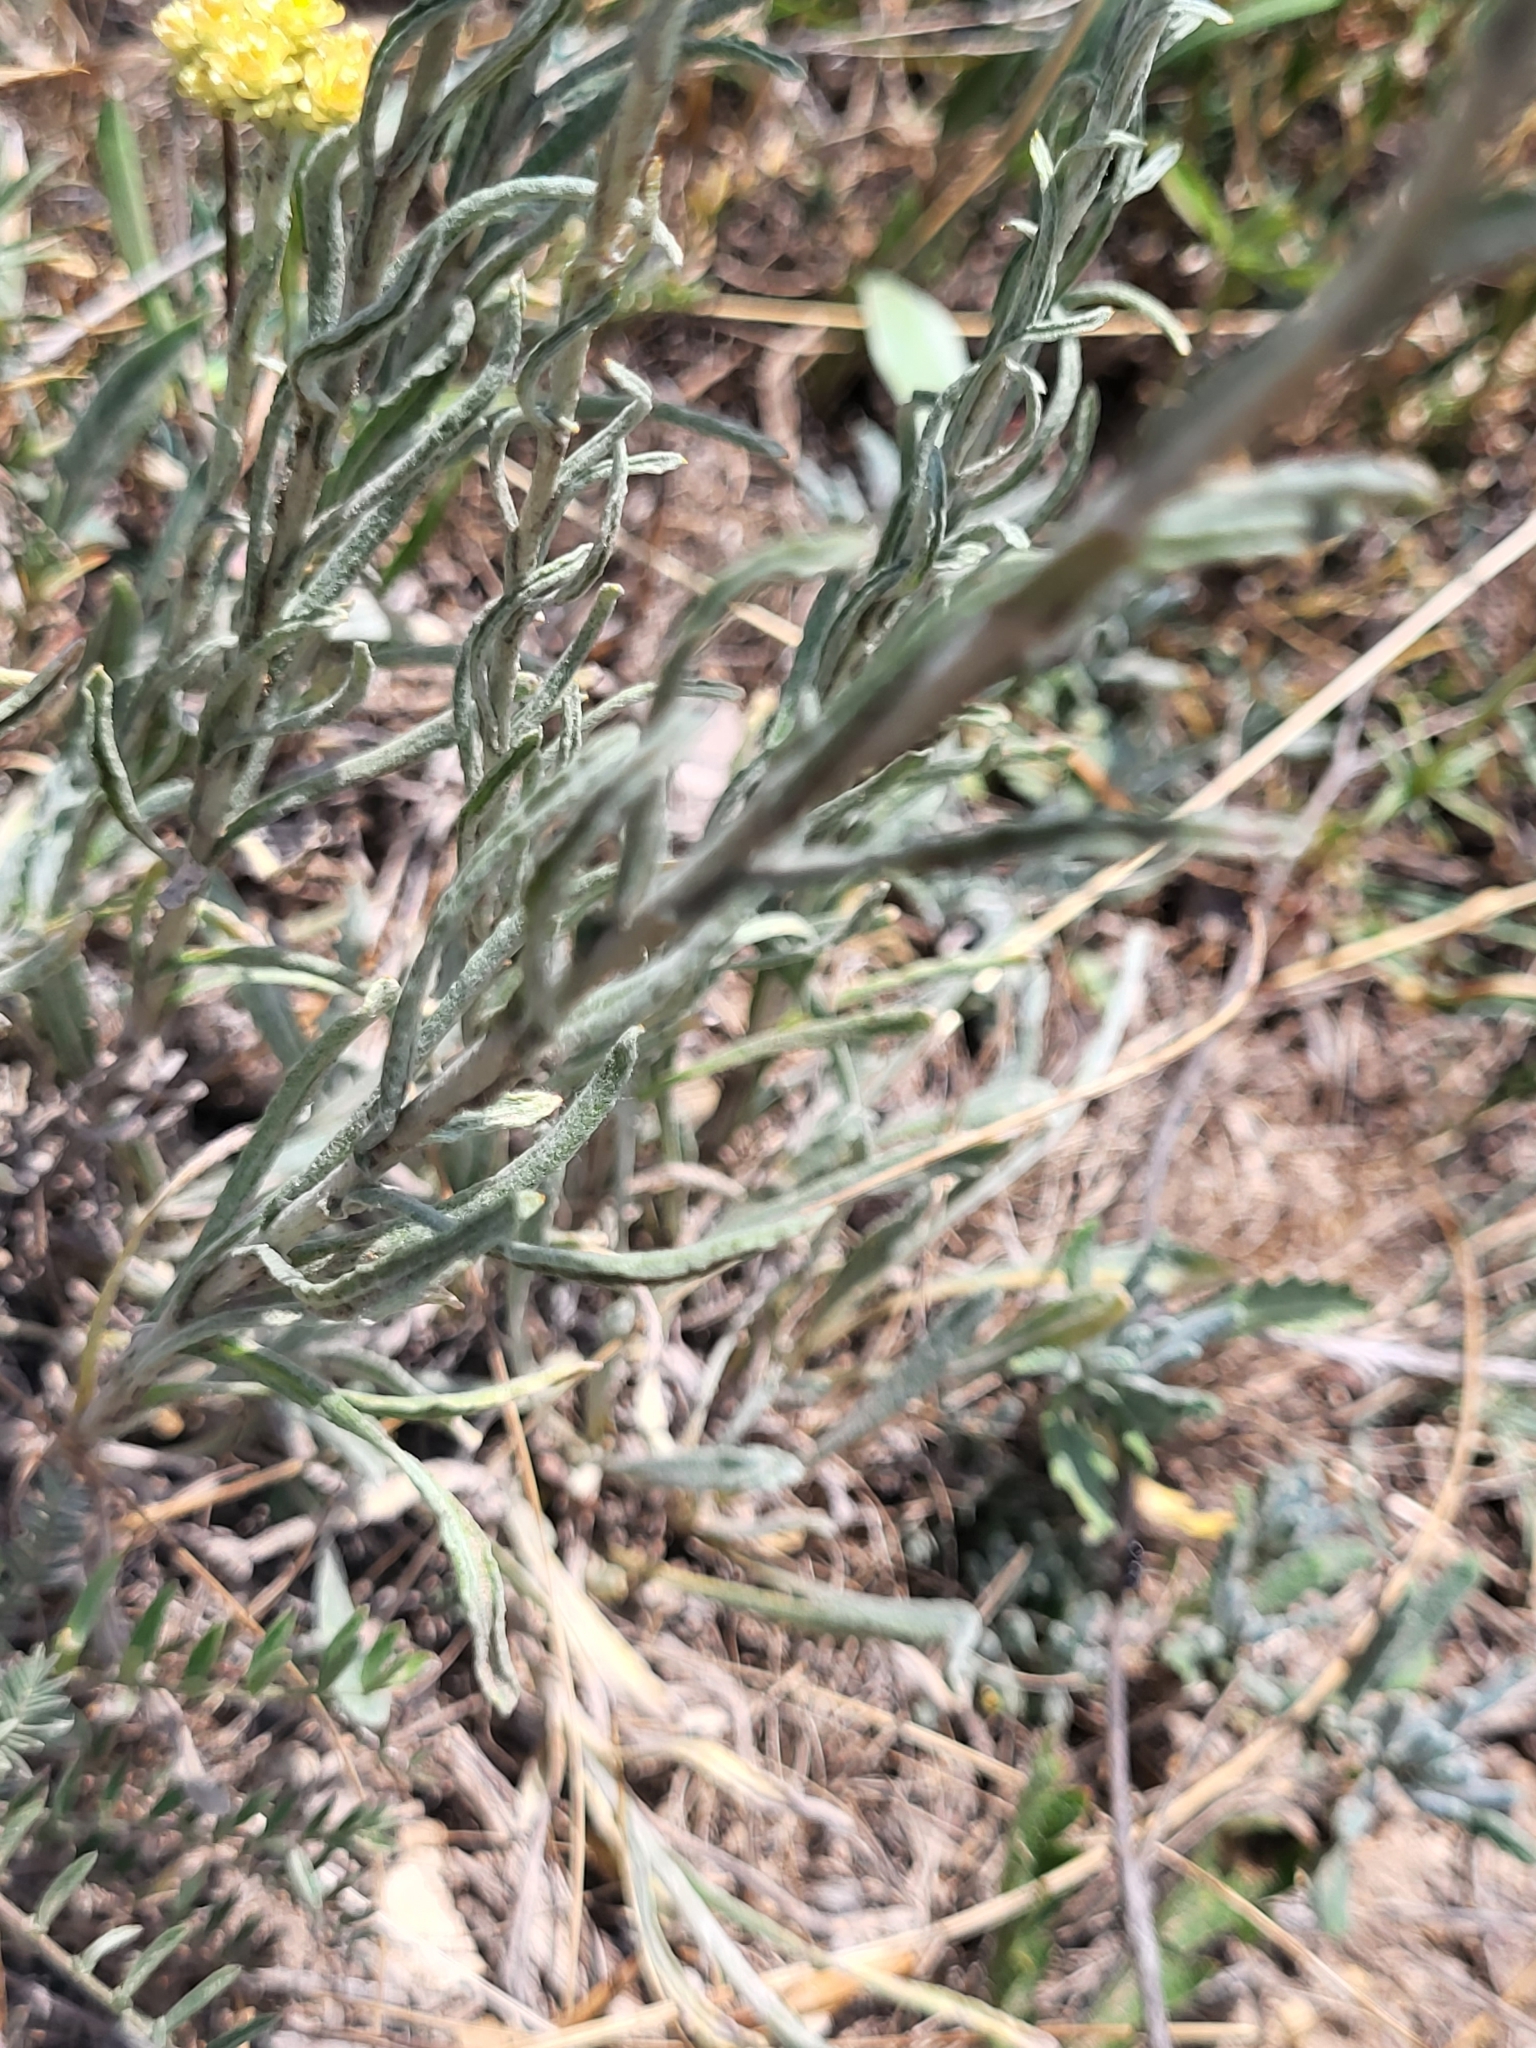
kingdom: Plantae
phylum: Tracheophyta
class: Magnoliopsida
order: Asterales
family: Asteraceae
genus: Helichrysum
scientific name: Helichrysum arenarium
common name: Strawflower
